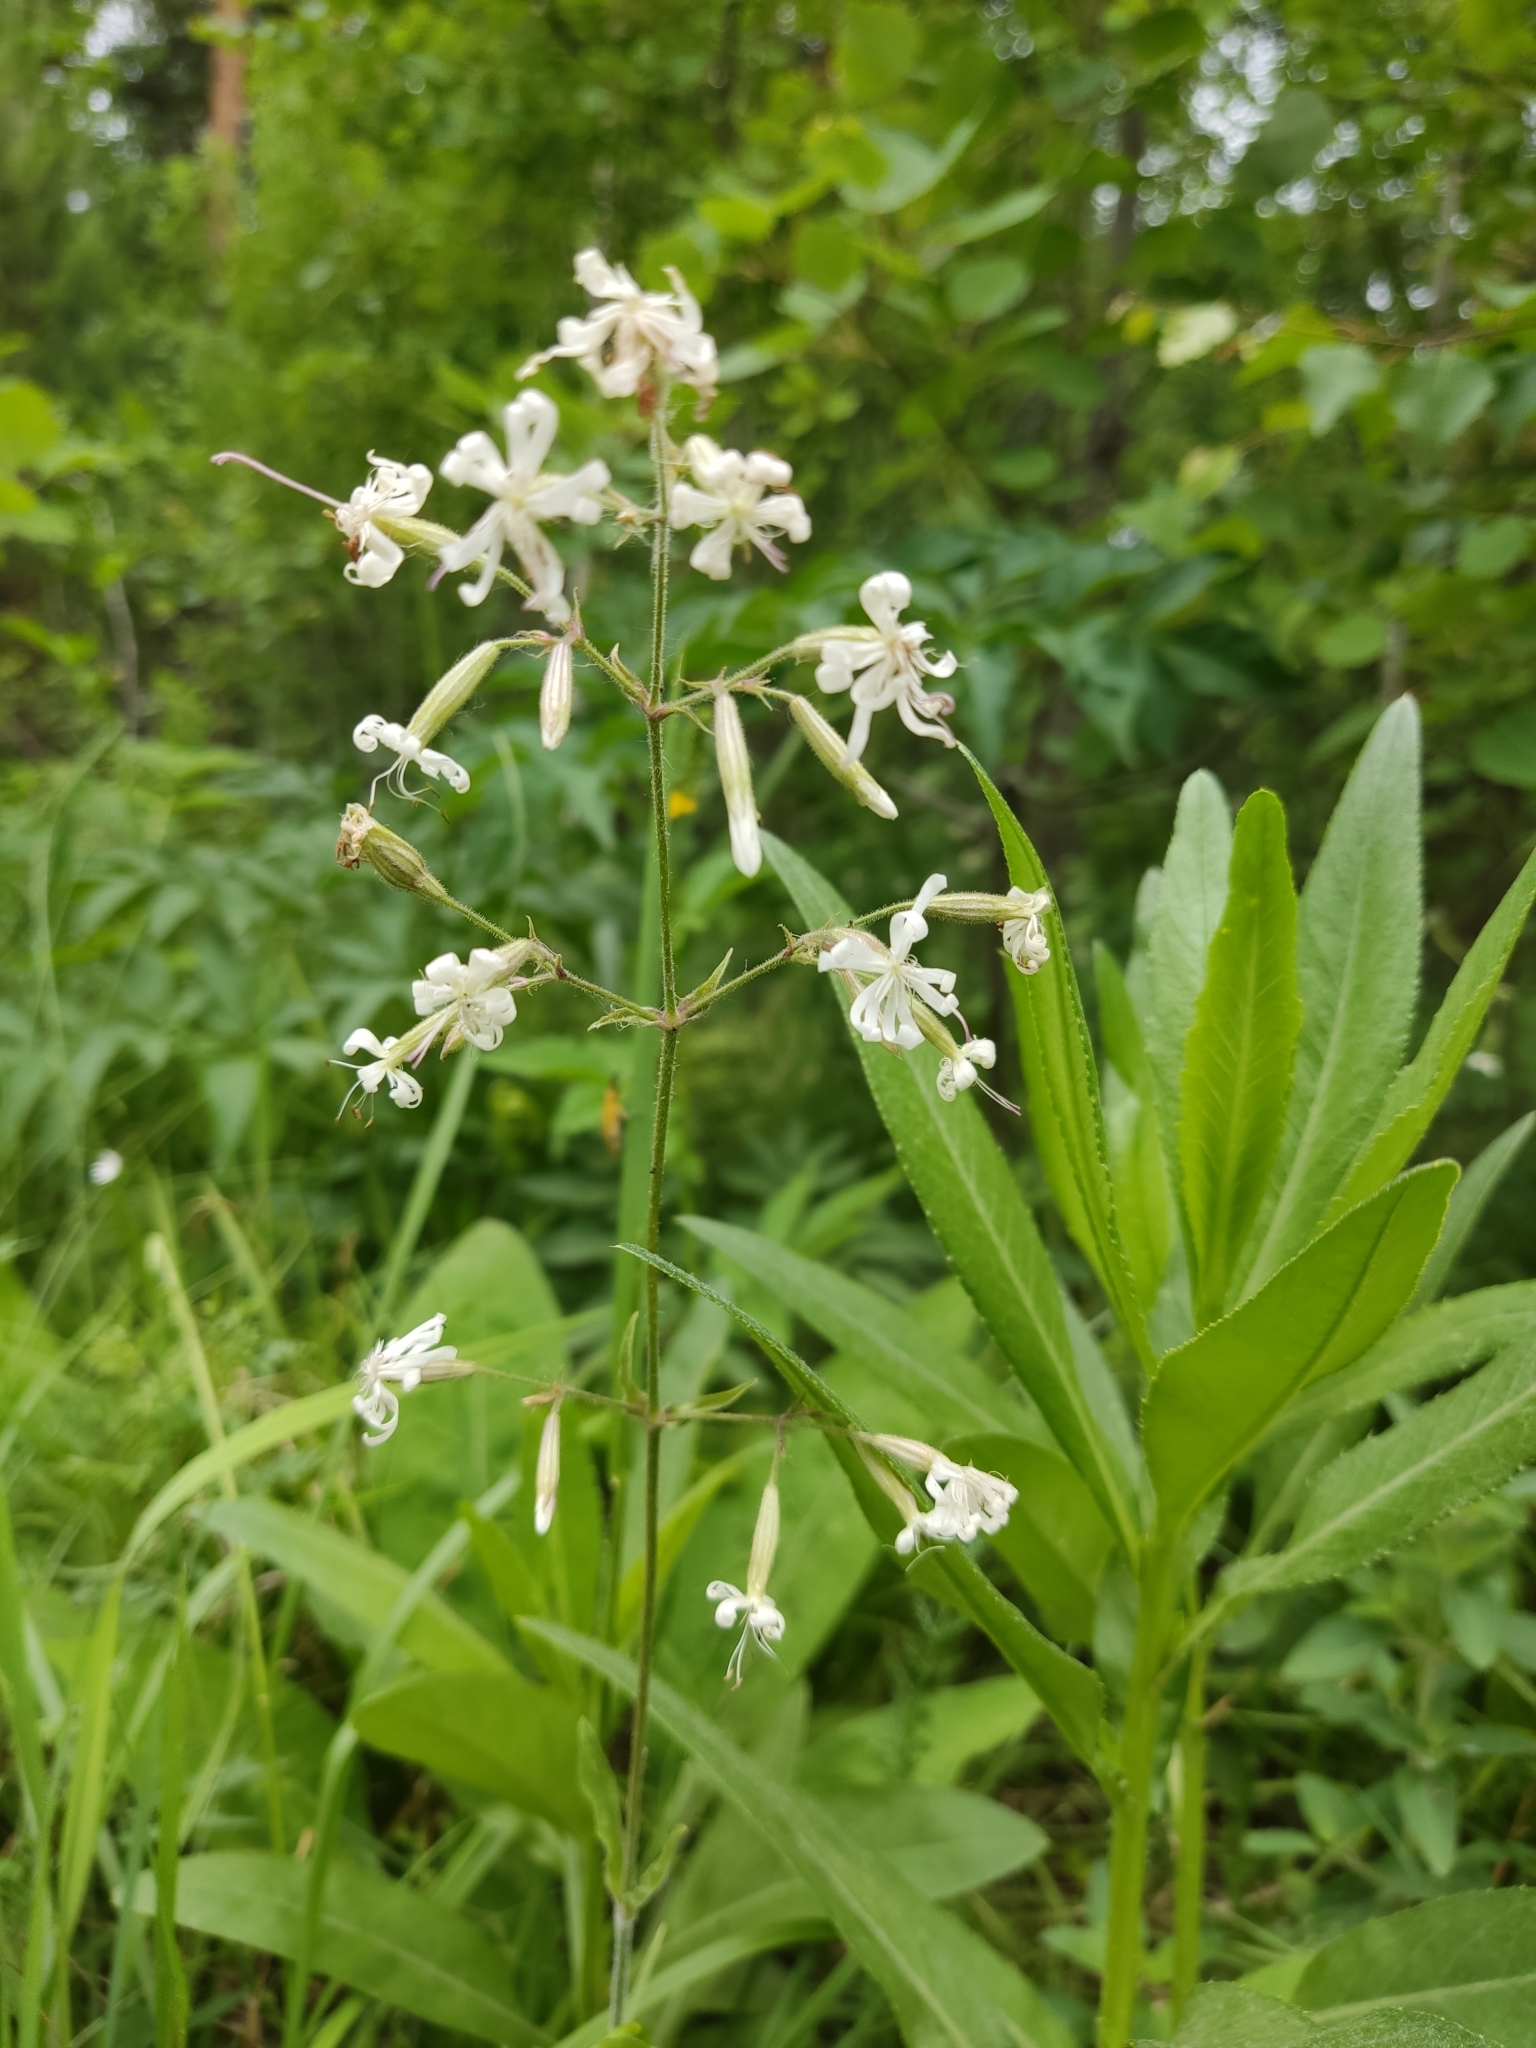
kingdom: Plantae
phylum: Tracheophyta
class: Magnoliopsida
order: Caryophyllales
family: Caryophyllaceae
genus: Silene
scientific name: Silene nutans
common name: Nottingham catchfly
